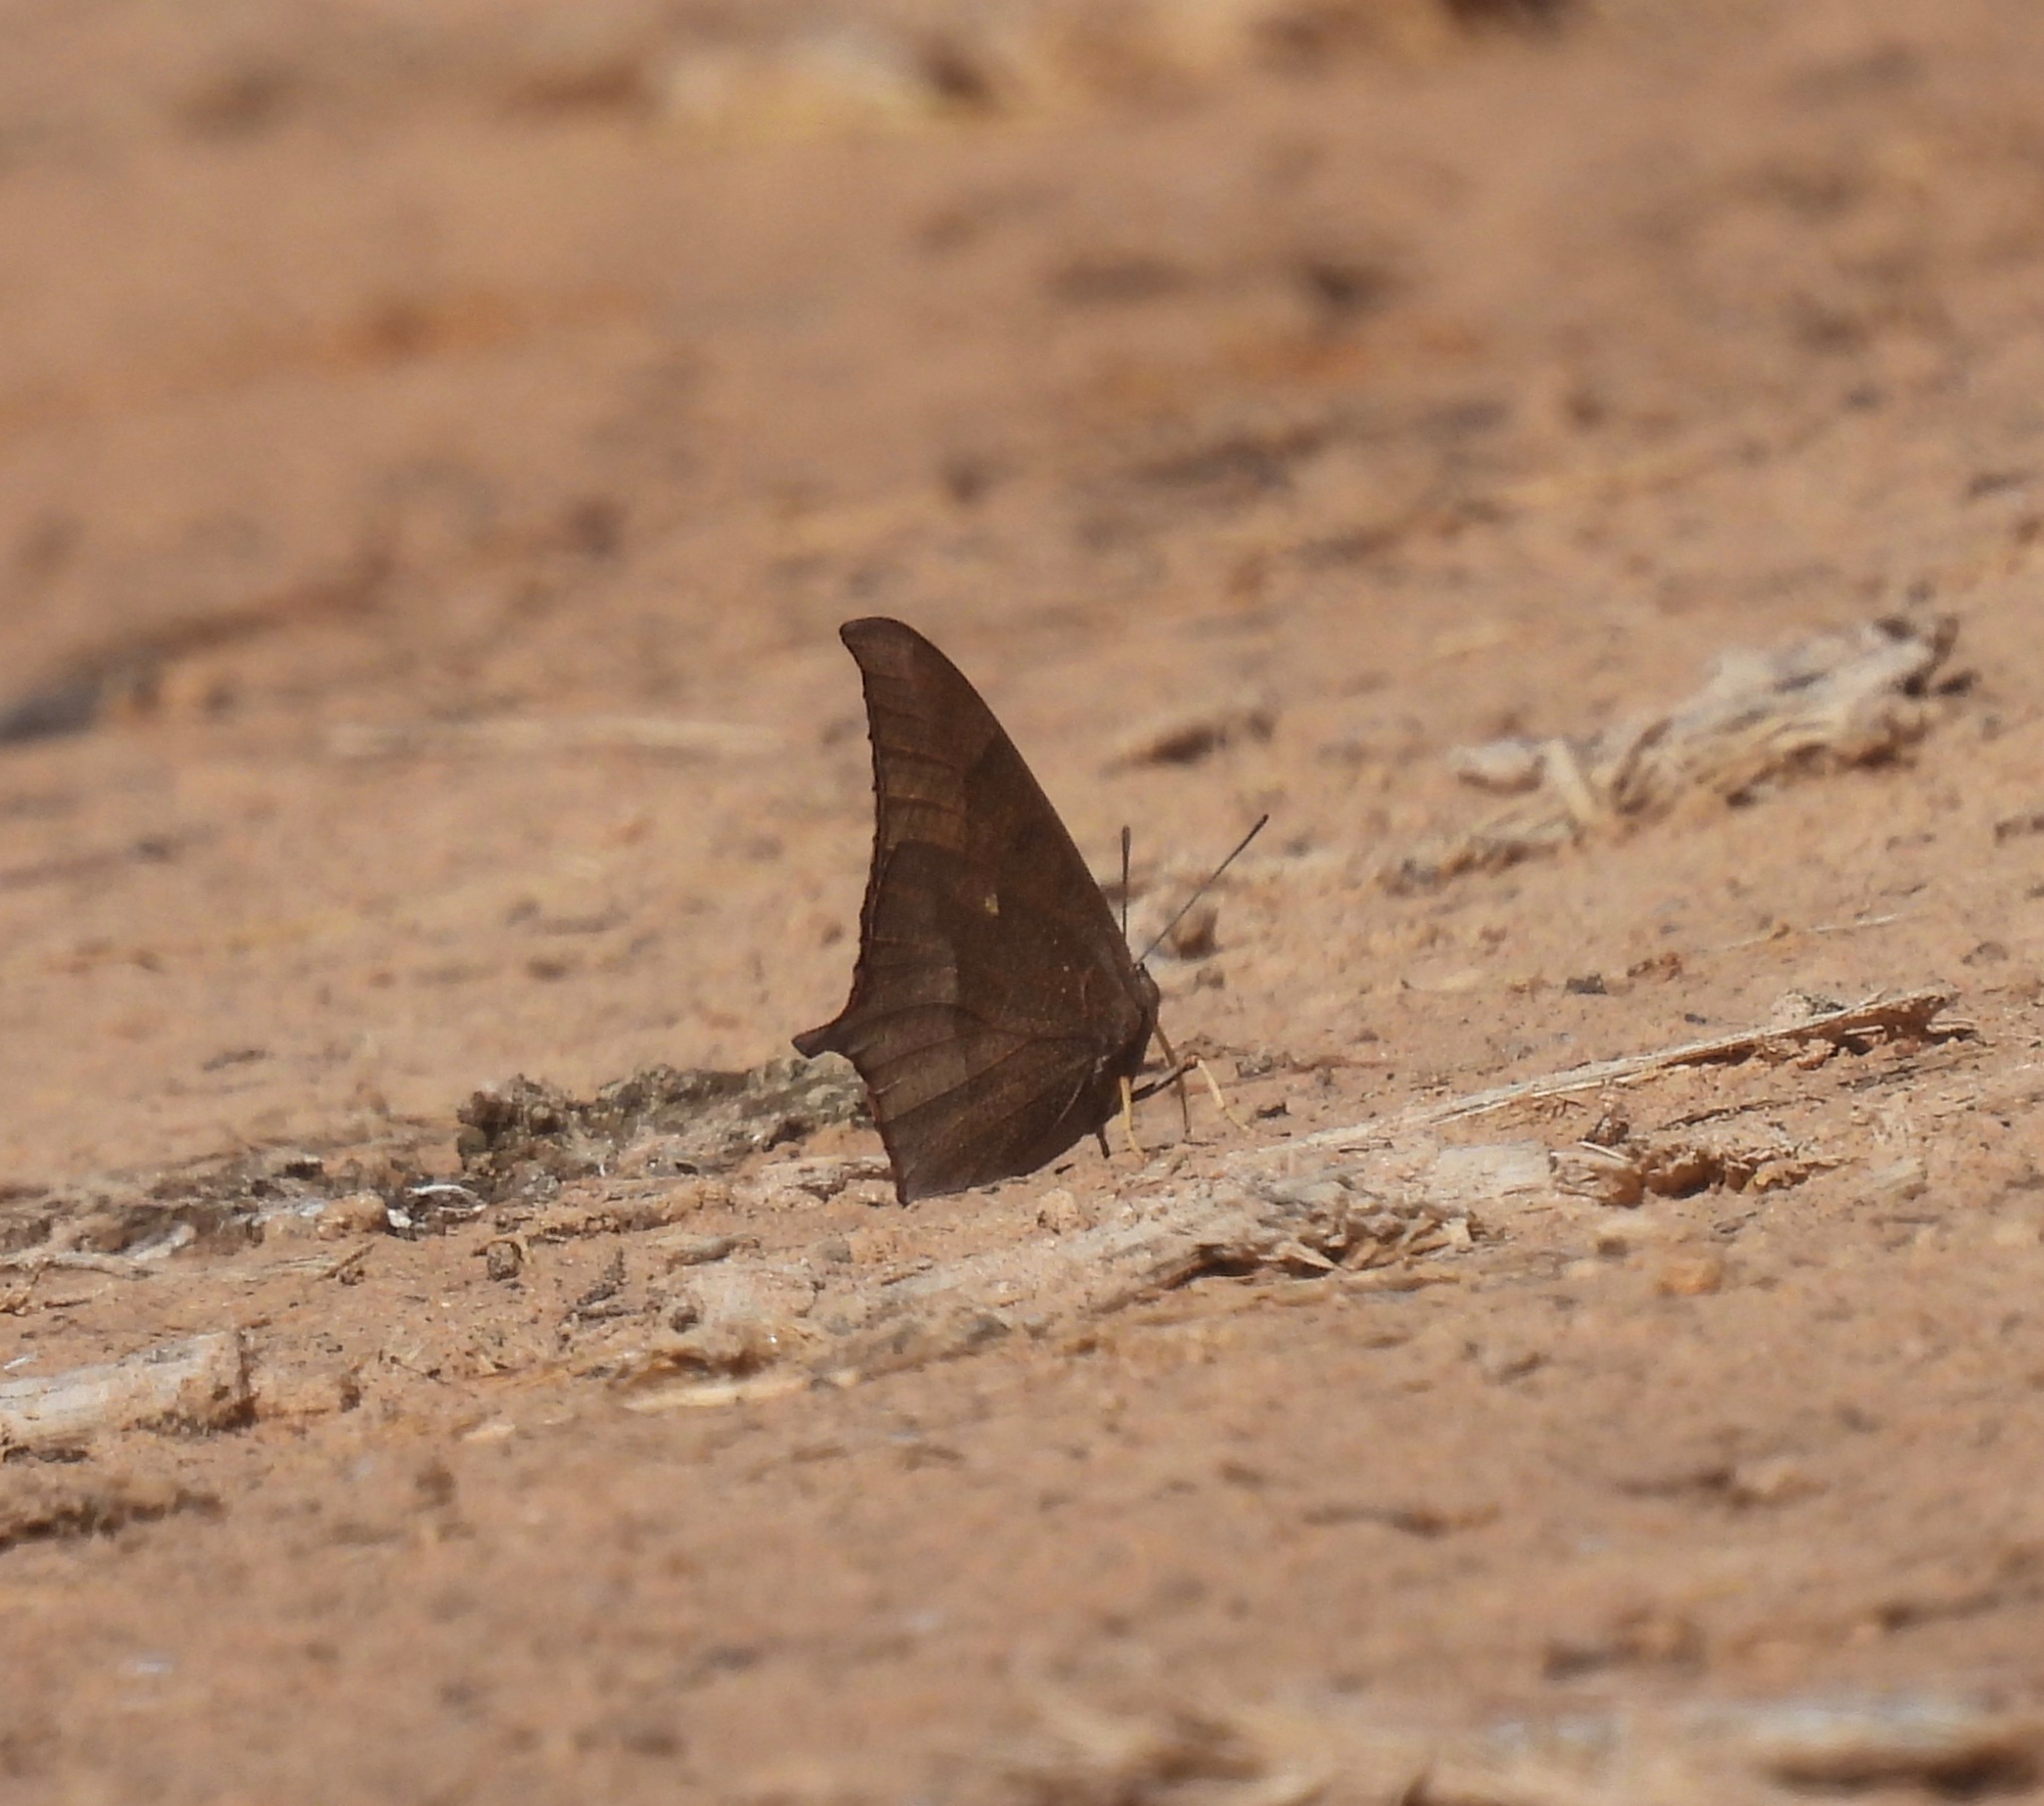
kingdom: Animalia
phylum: Arthropoda
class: Insecta
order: Lepidoptera
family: Nymphalidae
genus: Anaea
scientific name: Anaea andria
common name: Goatweed leafwing
